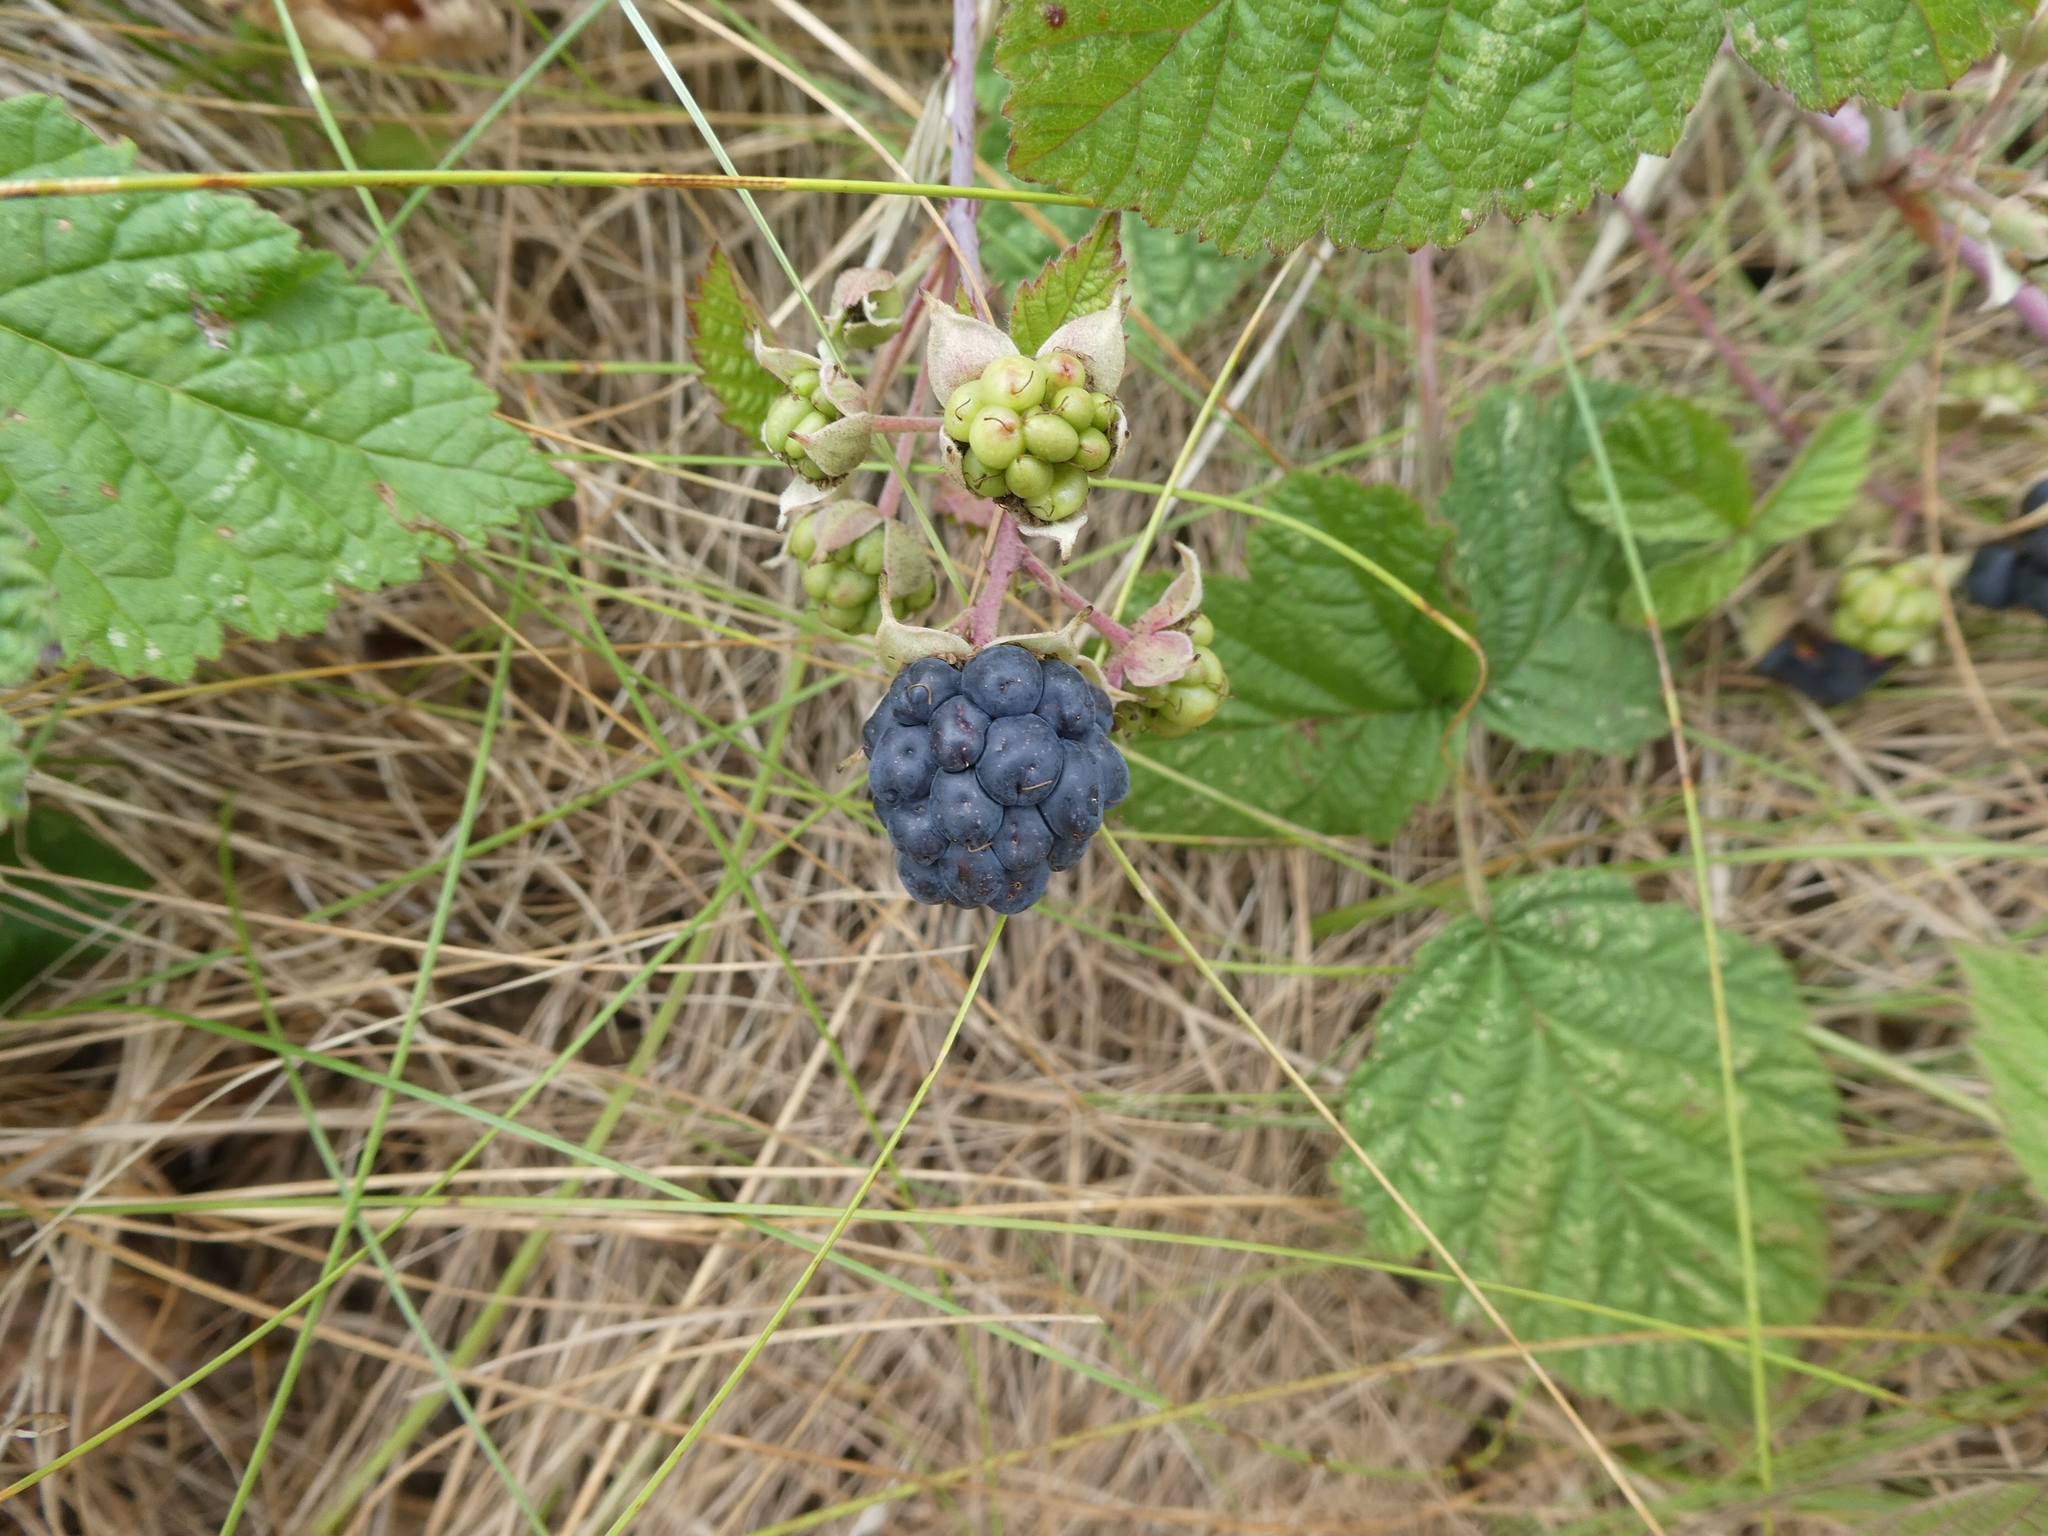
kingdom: Plantae
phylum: Tracheophyta
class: Magnoliopsida
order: Rosales
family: Rosaceae
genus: Rubus
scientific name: Rubus caesius
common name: Dewberry
